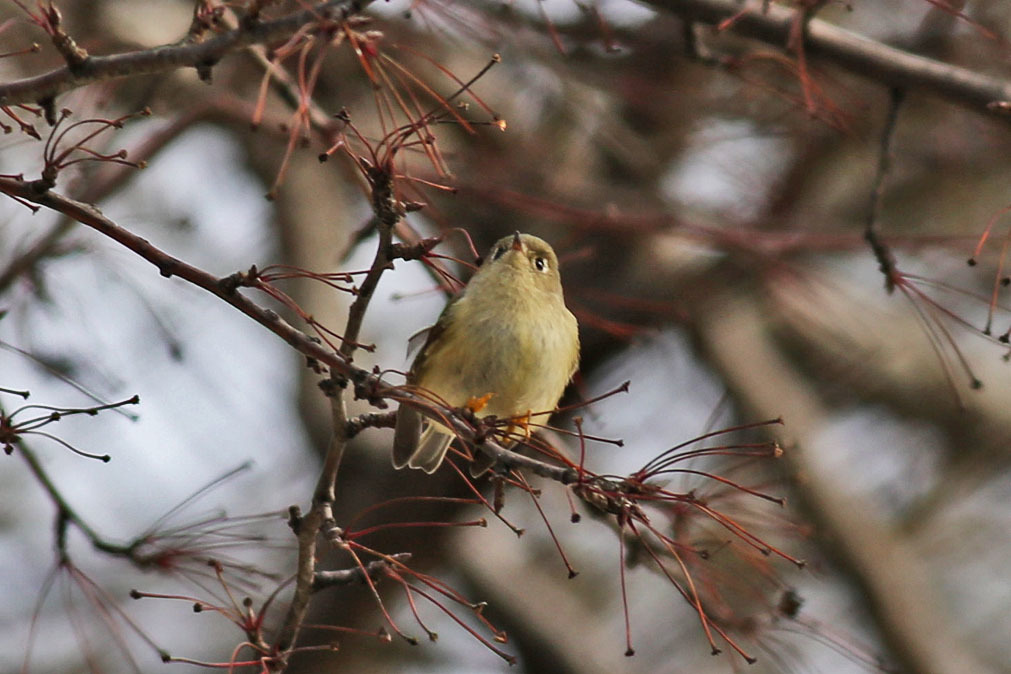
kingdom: Animalia
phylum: Chordata
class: Aves
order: Passeriformes
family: Regulidae
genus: Regulus
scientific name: Regulus calendula
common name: Ruby-crowned kinglet
